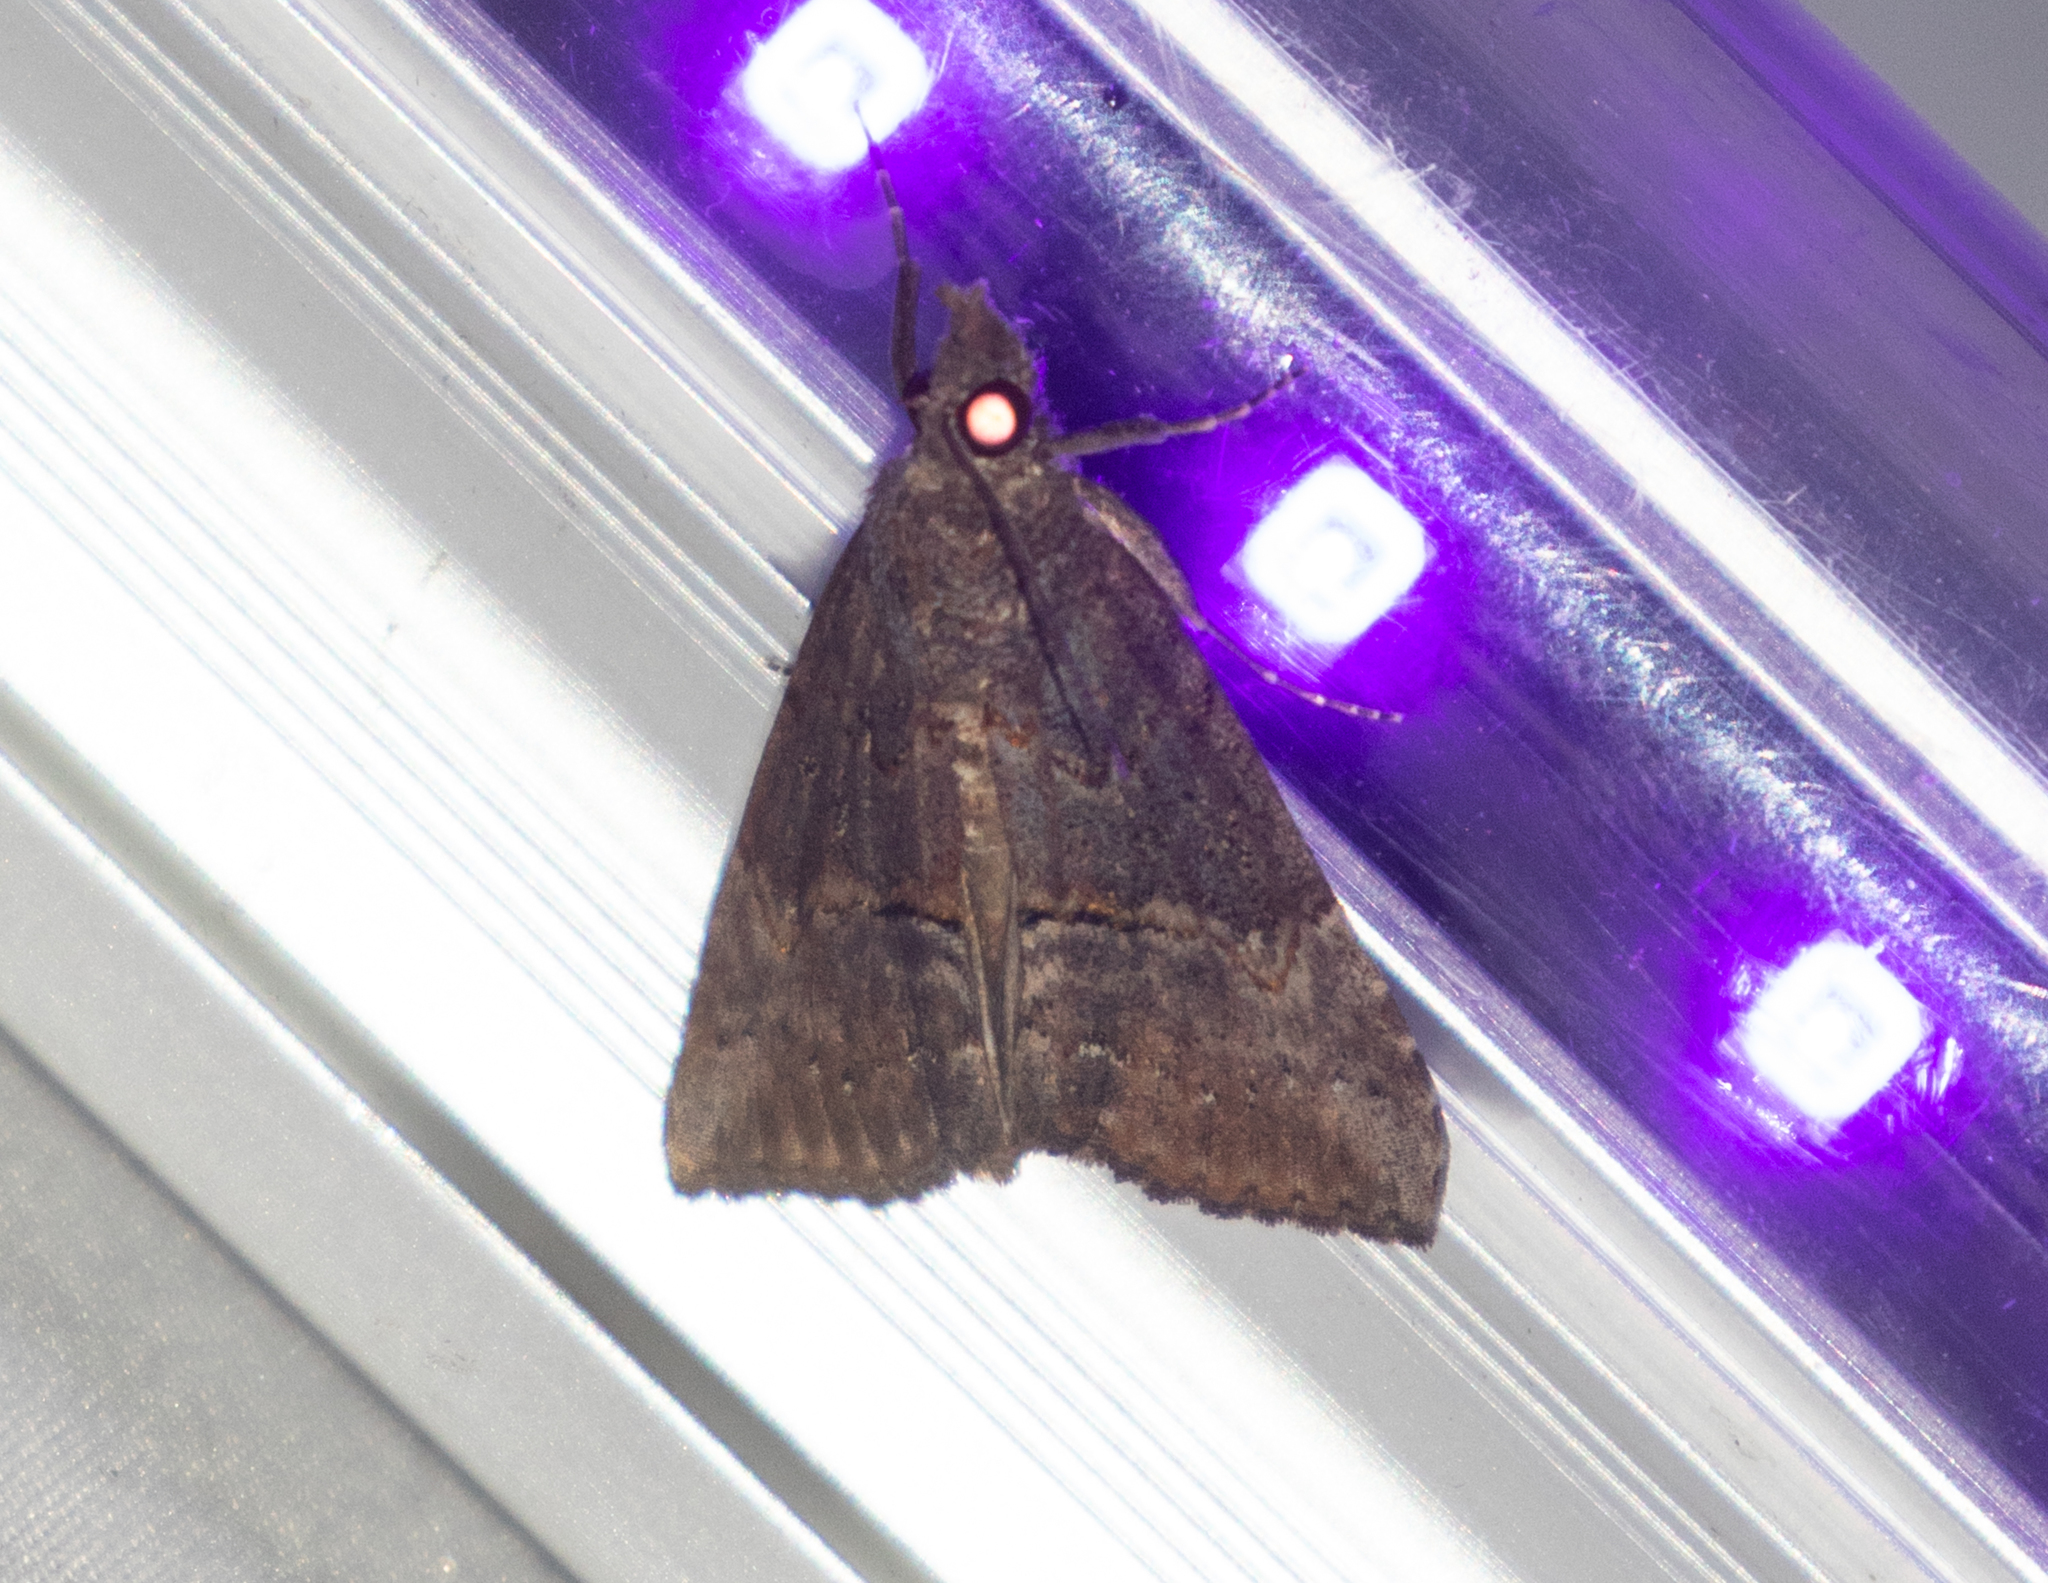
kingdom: Animalia
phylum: Arthropoda
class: Insecta
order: Lepidoptera
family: Erebidae
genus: Hypena
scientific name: Hypena scabra
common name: Green cloverworm
